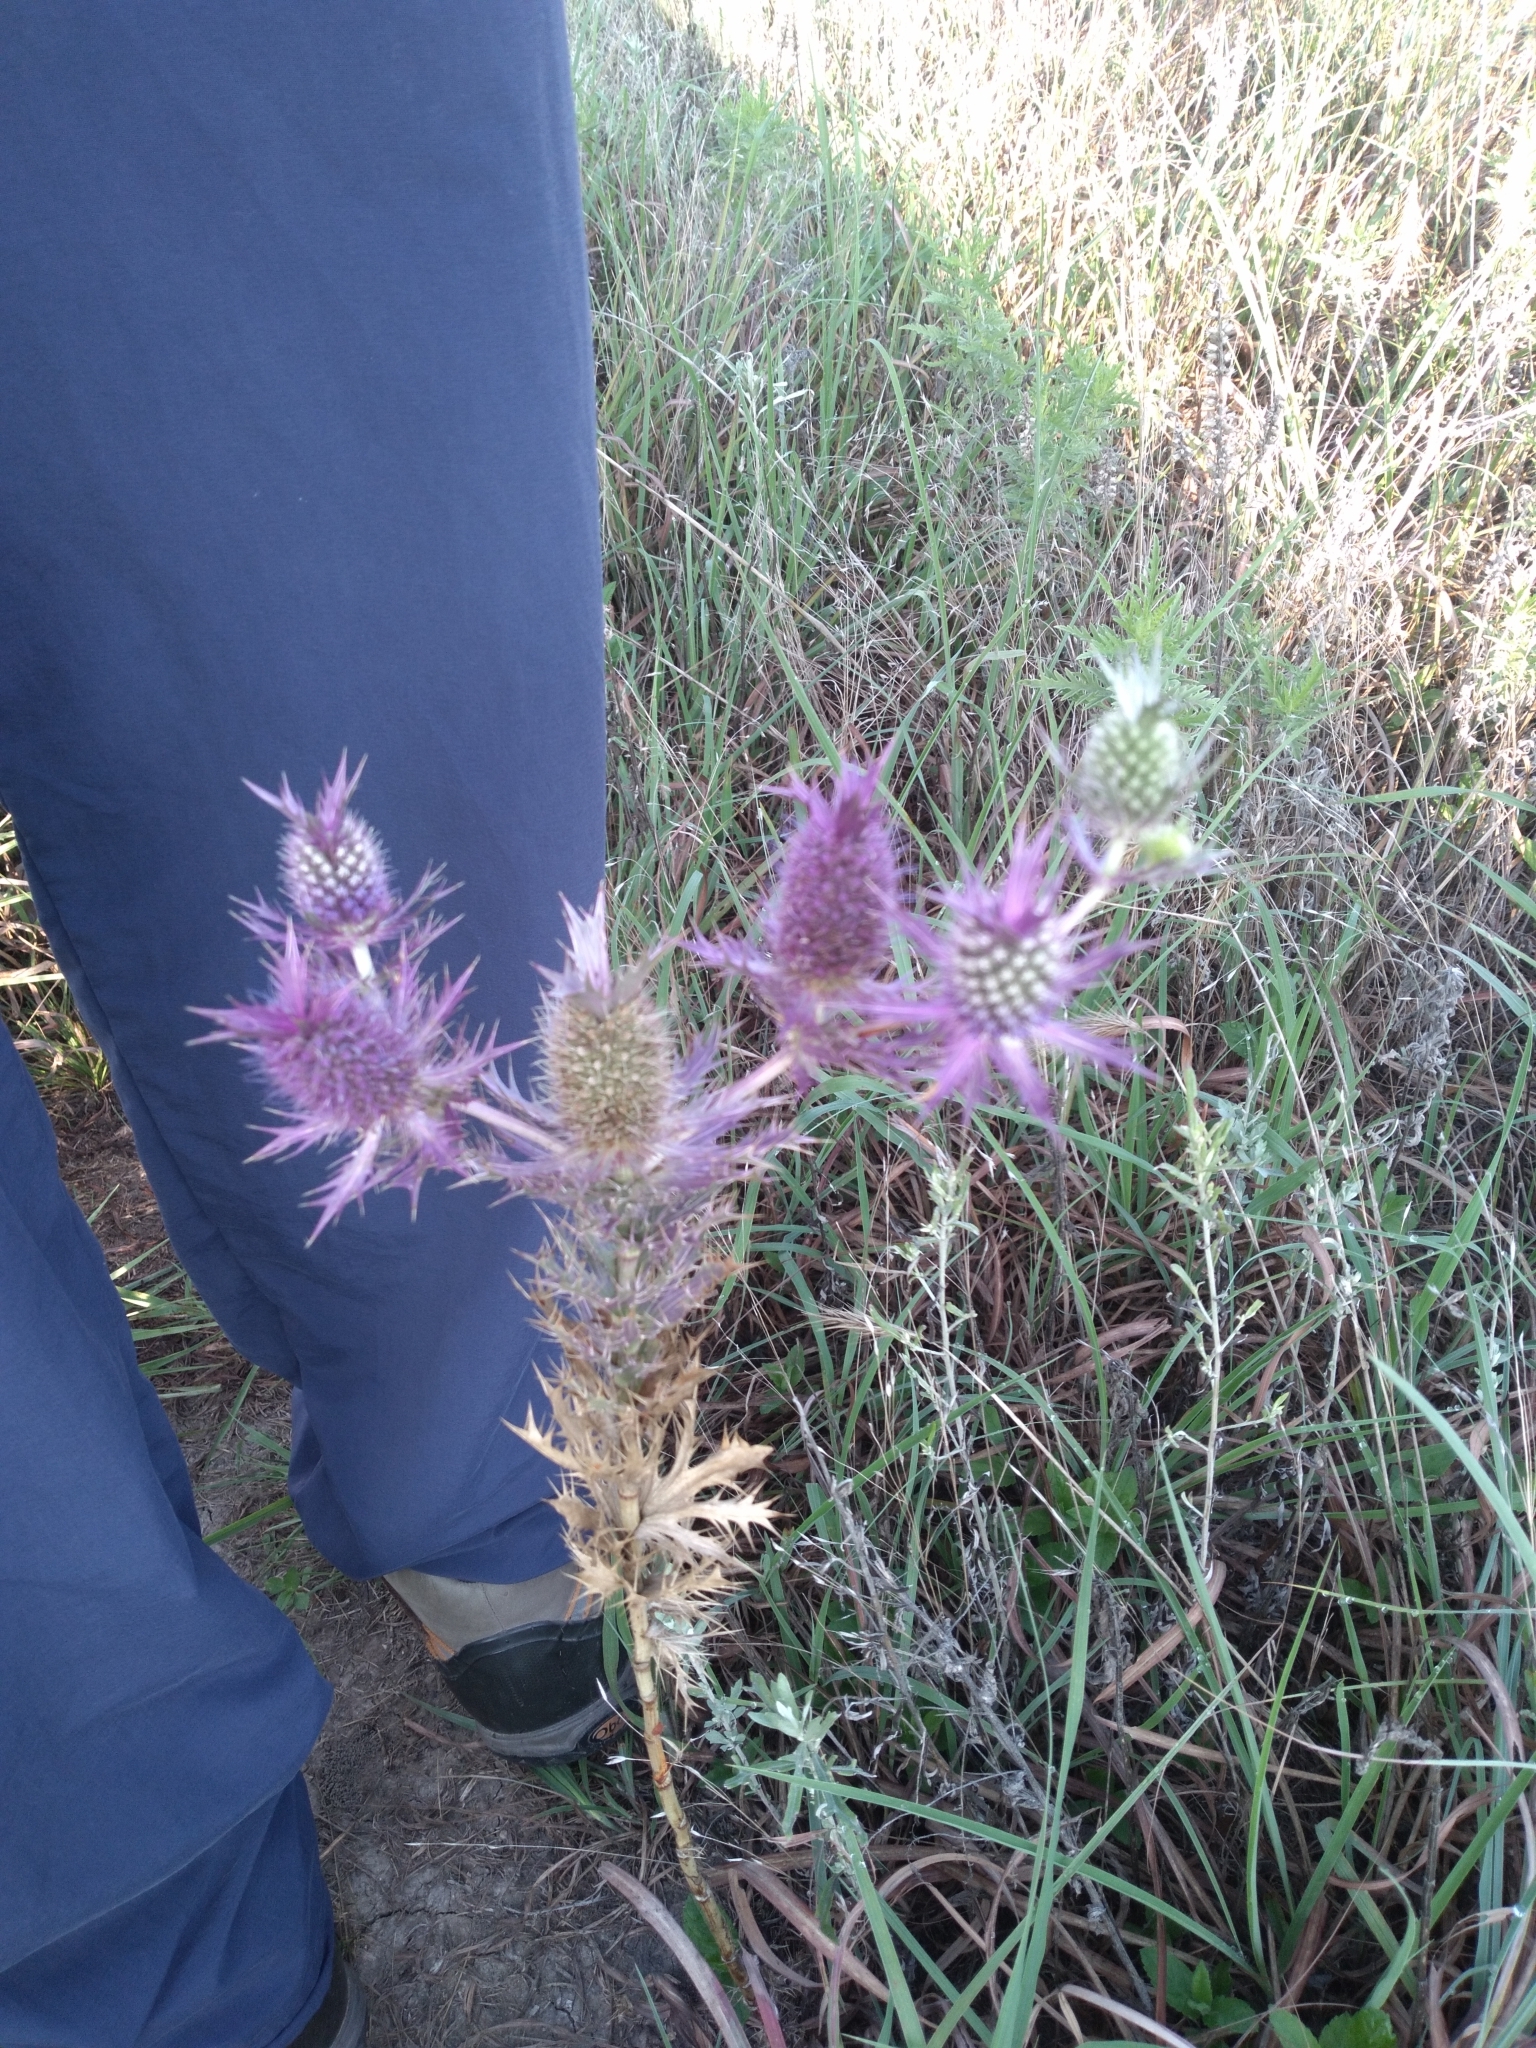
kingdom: Plantae
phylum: Tracheophyta
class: Magnoliopsida
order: Apiales
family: Apiaceae
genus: Eryngium
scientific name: Eryngium leavenworthii
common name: Leavenworth's eryngo
